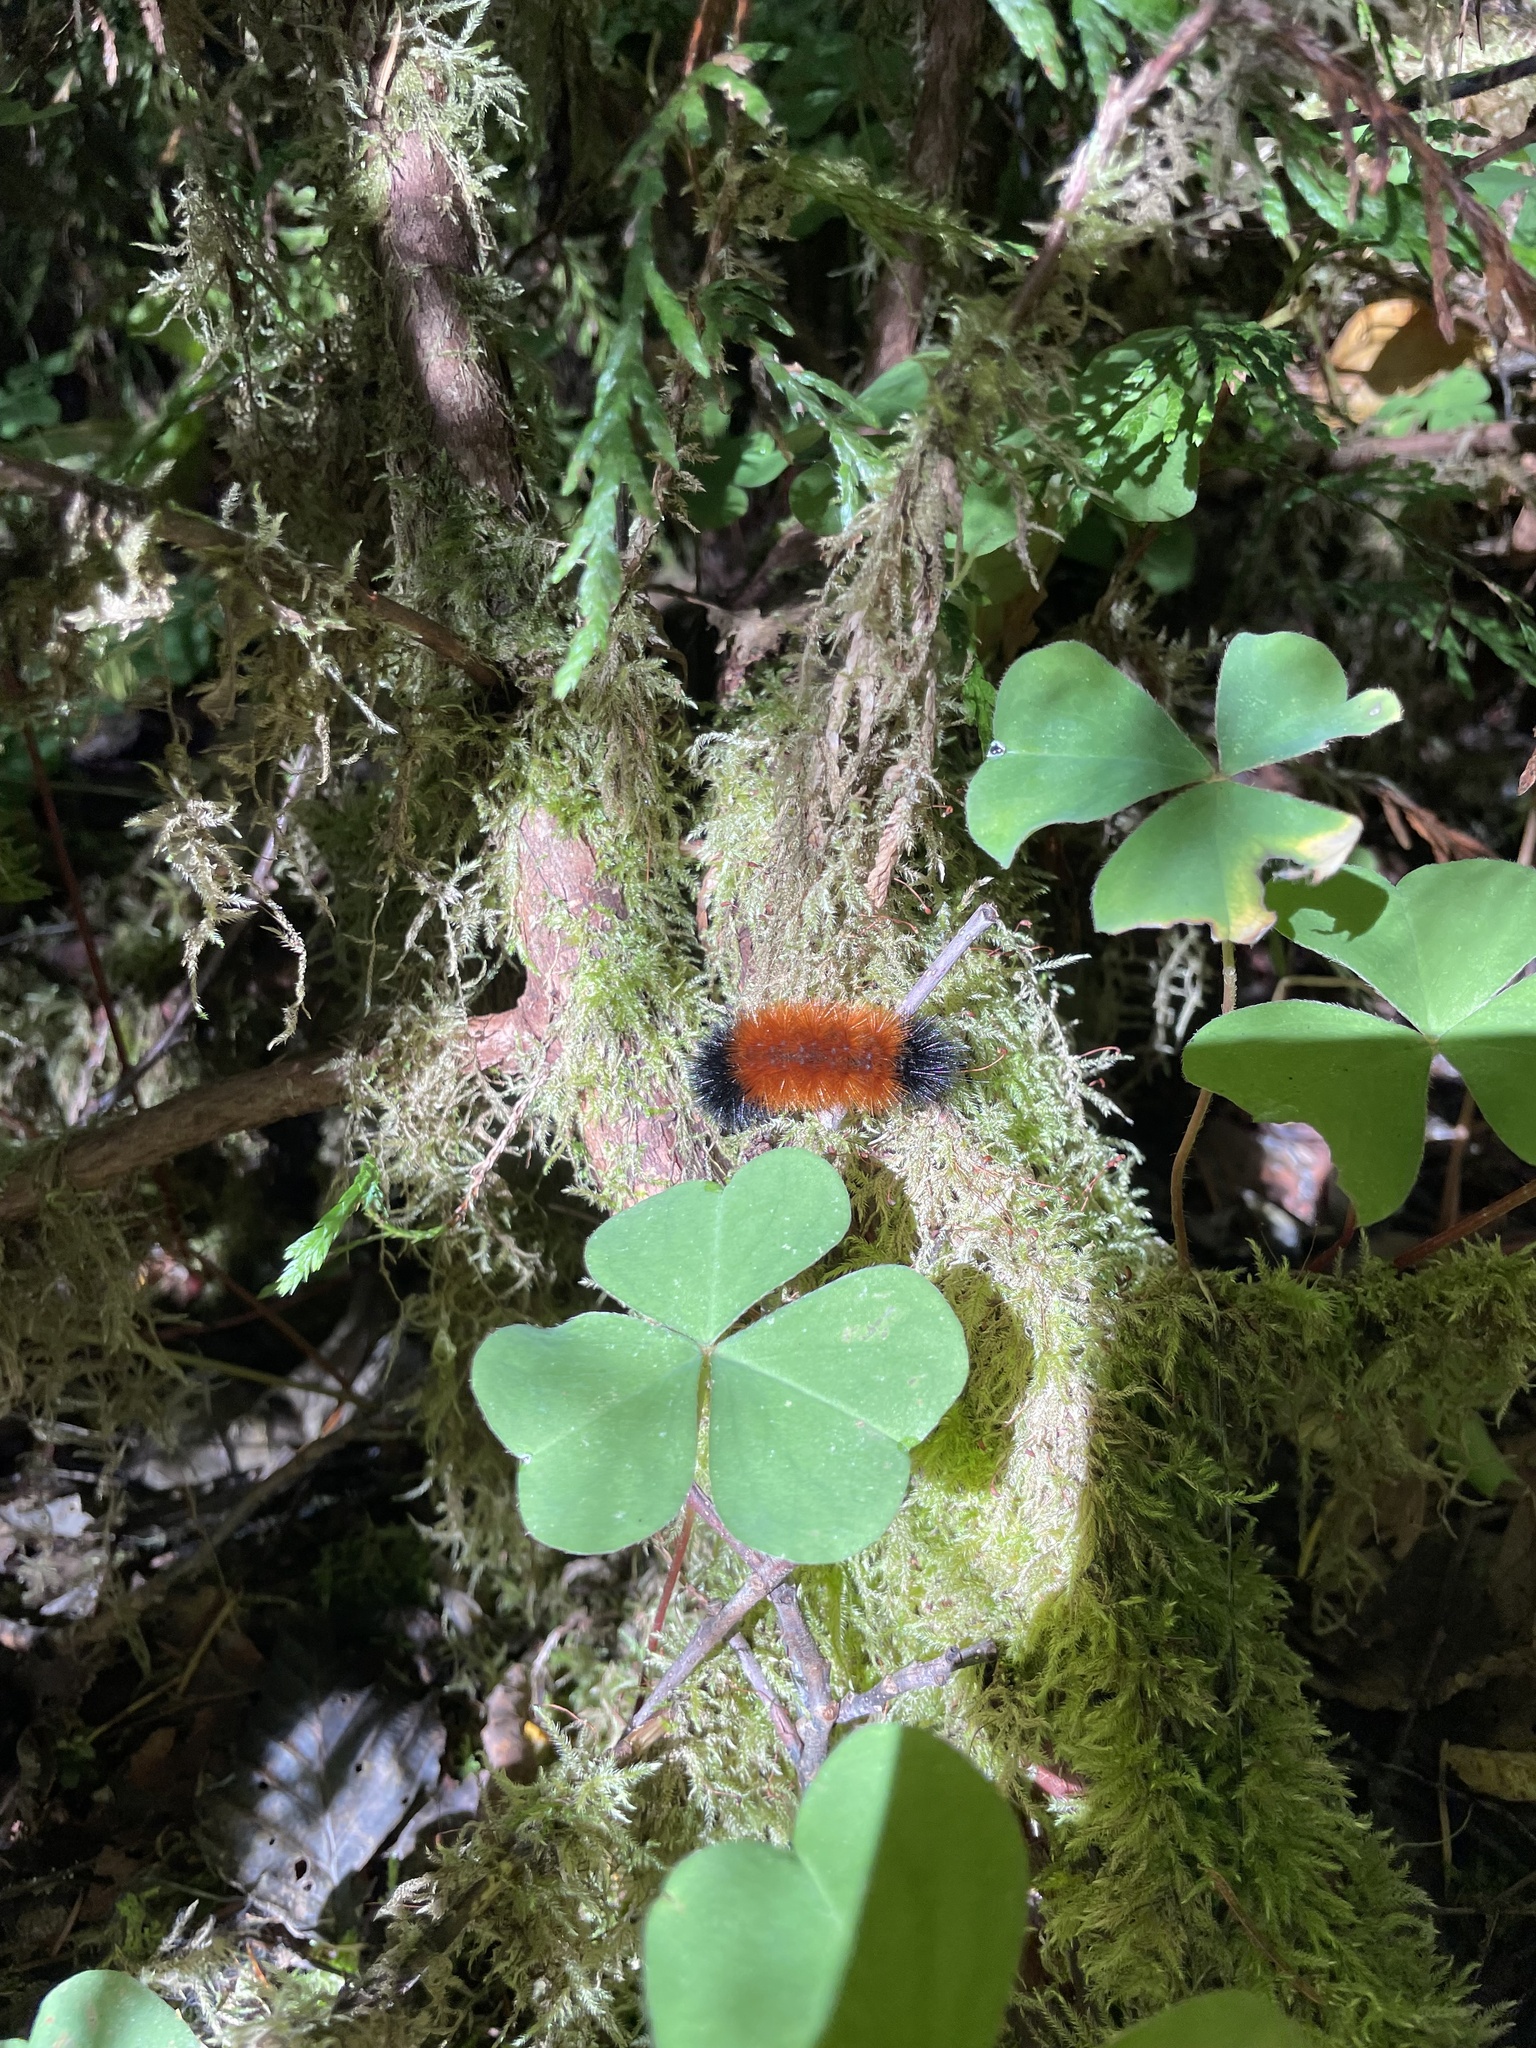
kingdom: Animalia
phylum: Arthropoda
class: Insecta
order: Lepidoptera
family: Erebidae
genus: Pyrrharctia
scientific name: Pyrrharctia isabella
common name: Isabella tiger moth
